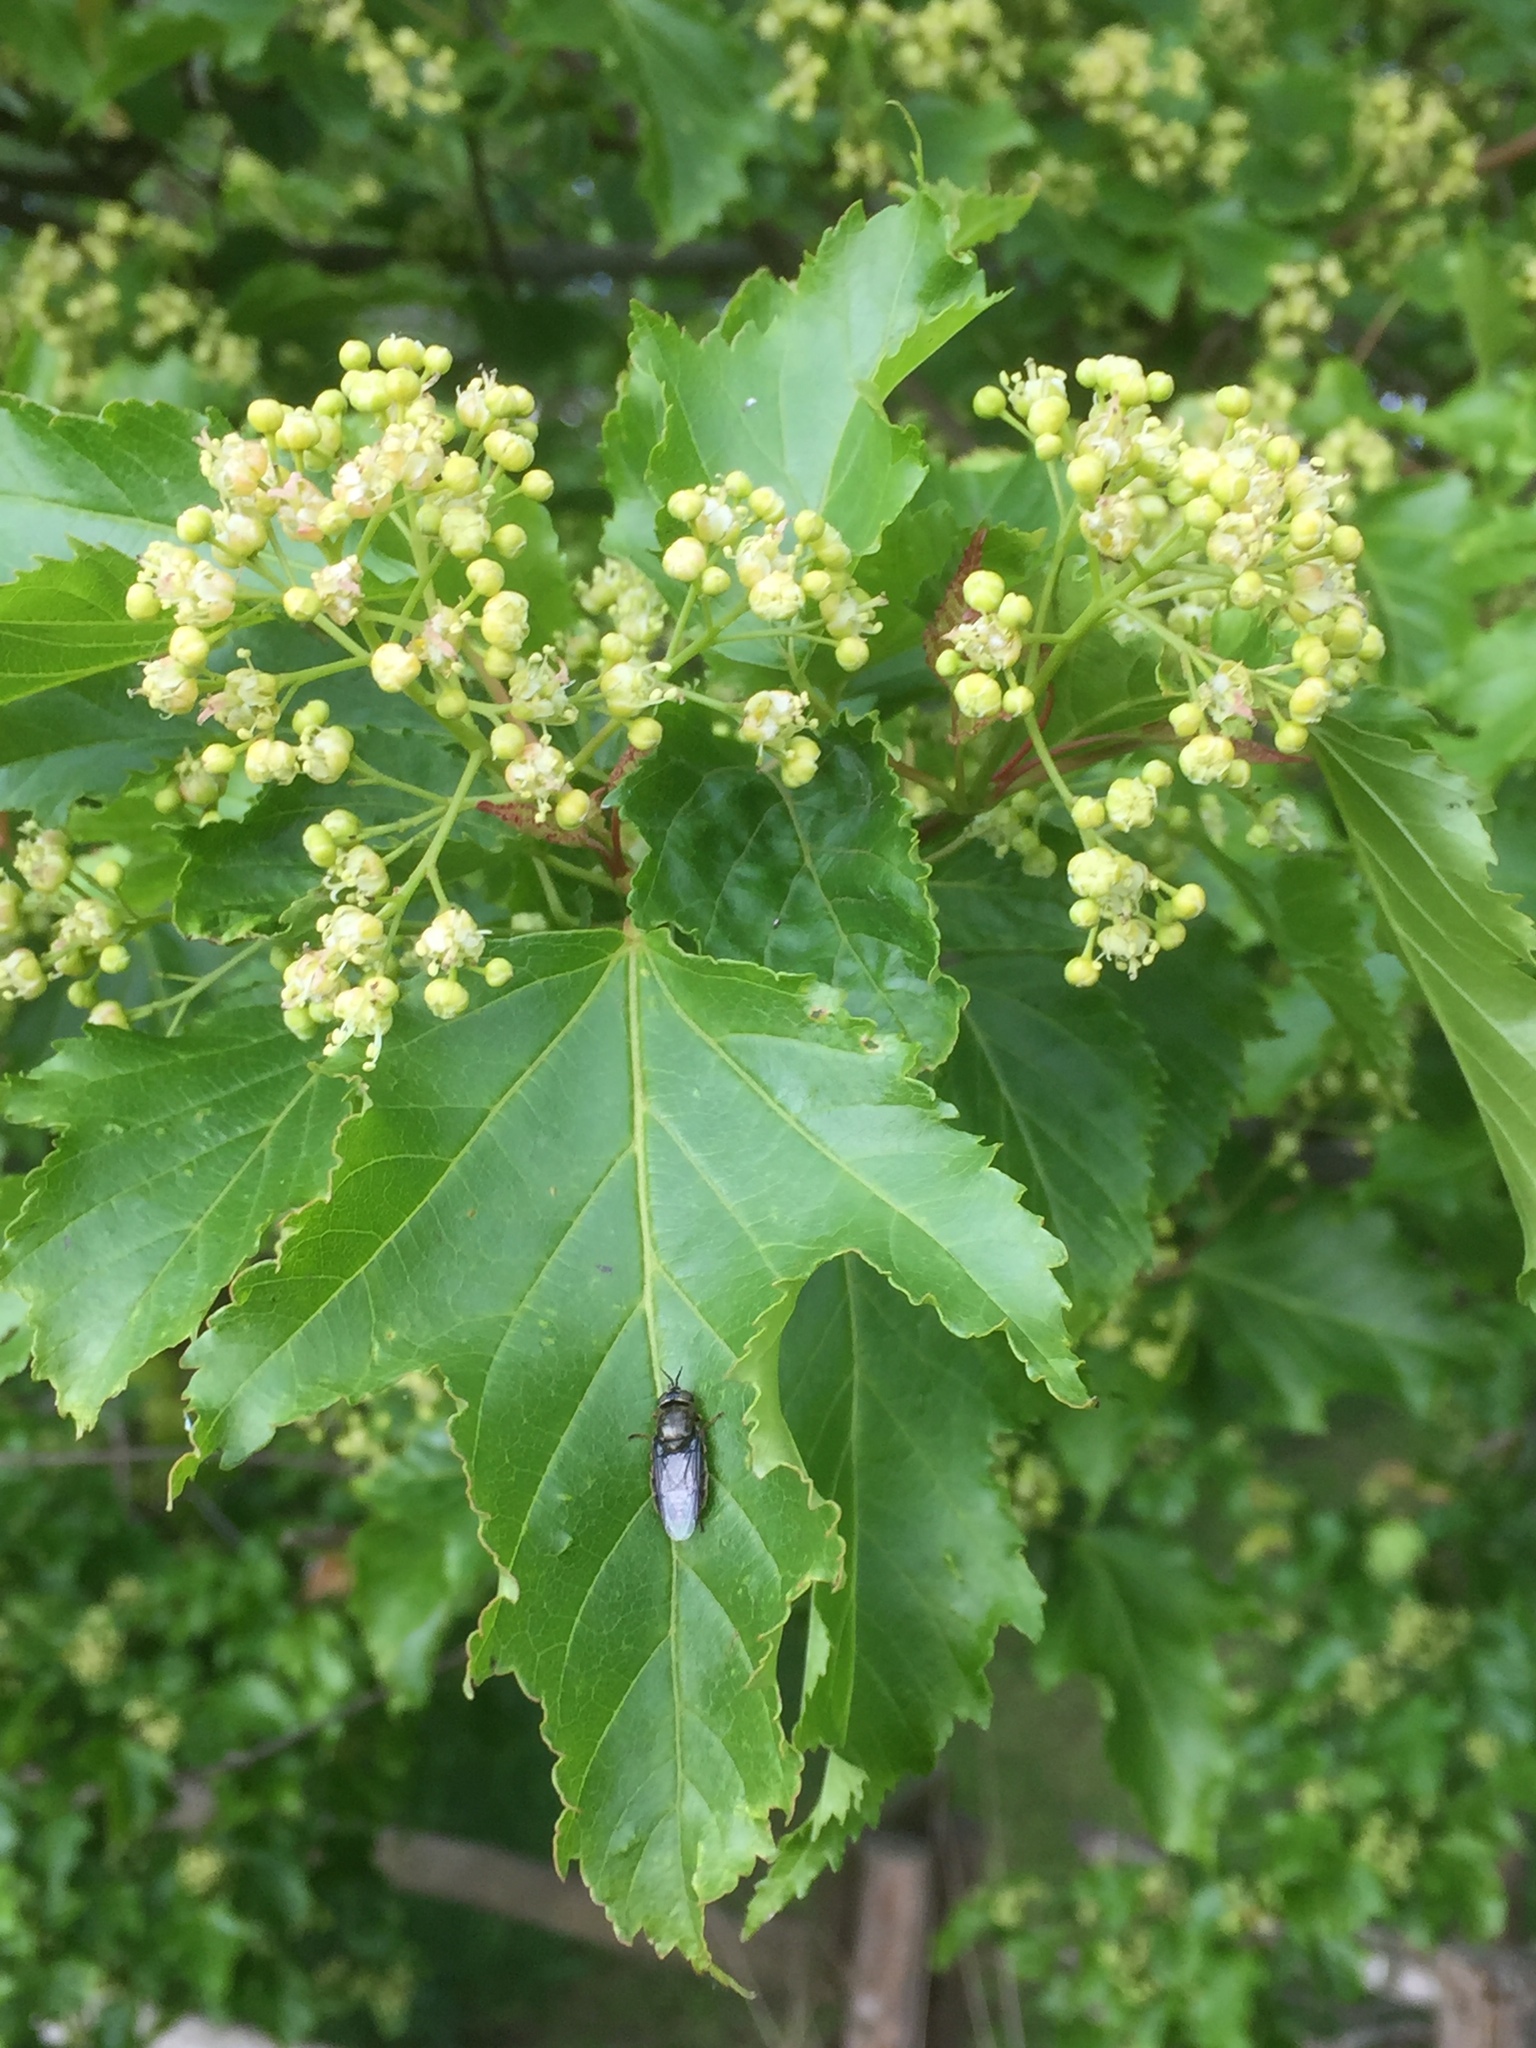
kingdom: Plantae
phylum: Tracheophyta
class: Magnoliopsida
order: Sapindales
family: Sapindaceae
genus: Acer
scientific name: Acer tataricum
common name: Tartar maple
